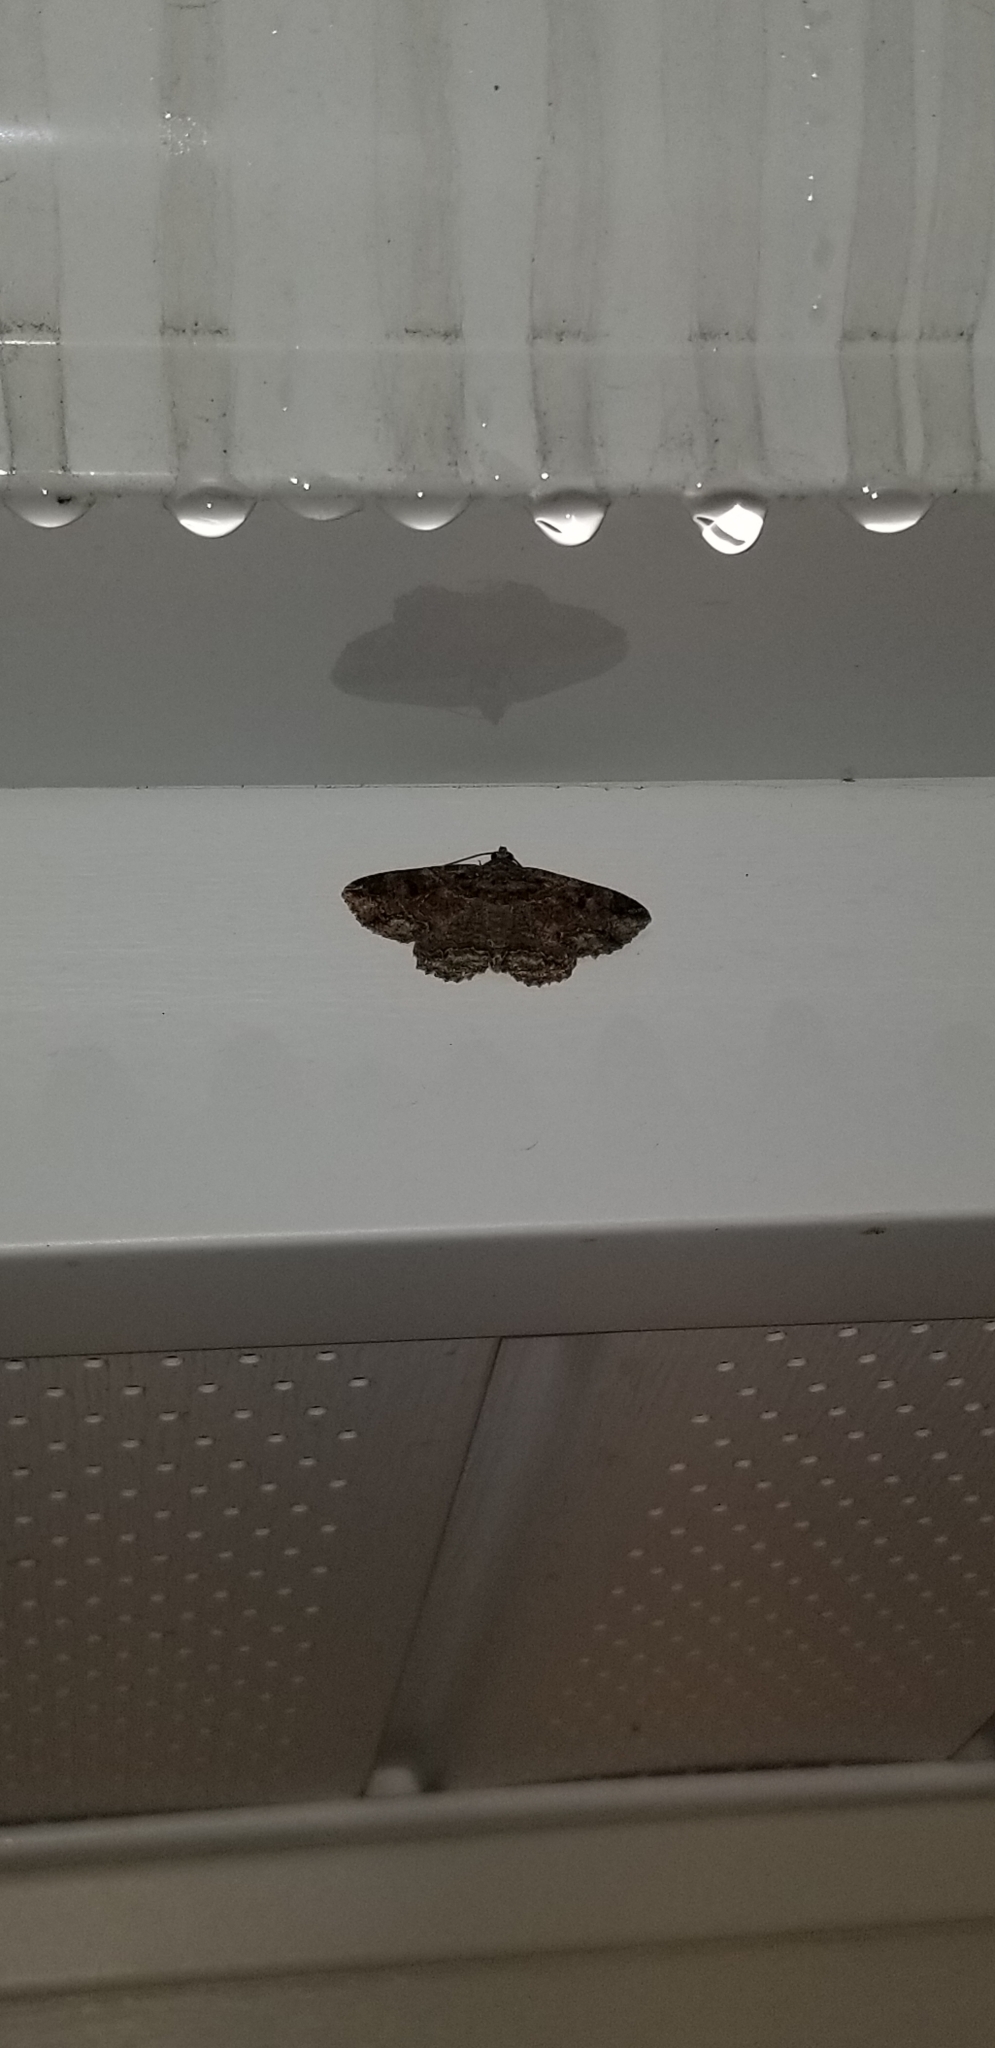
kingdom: Animalia
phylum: Arthropoda
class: Insecta
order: Lepidoptera
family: Erebidae
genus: Zale
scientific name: Zale minerea
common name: Colorful zale moth
